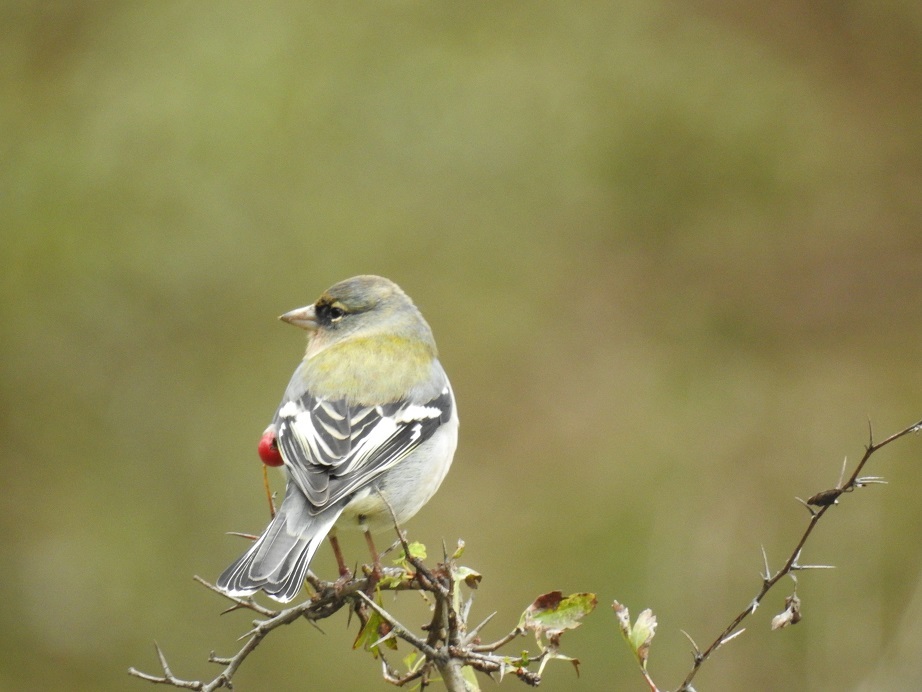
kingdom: Animalia
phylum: Chordata
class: Aves
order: Passeriformes
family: Fringillidae
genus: Fringilla
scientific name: Fringilla spodiogenys
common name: African chaffinch
